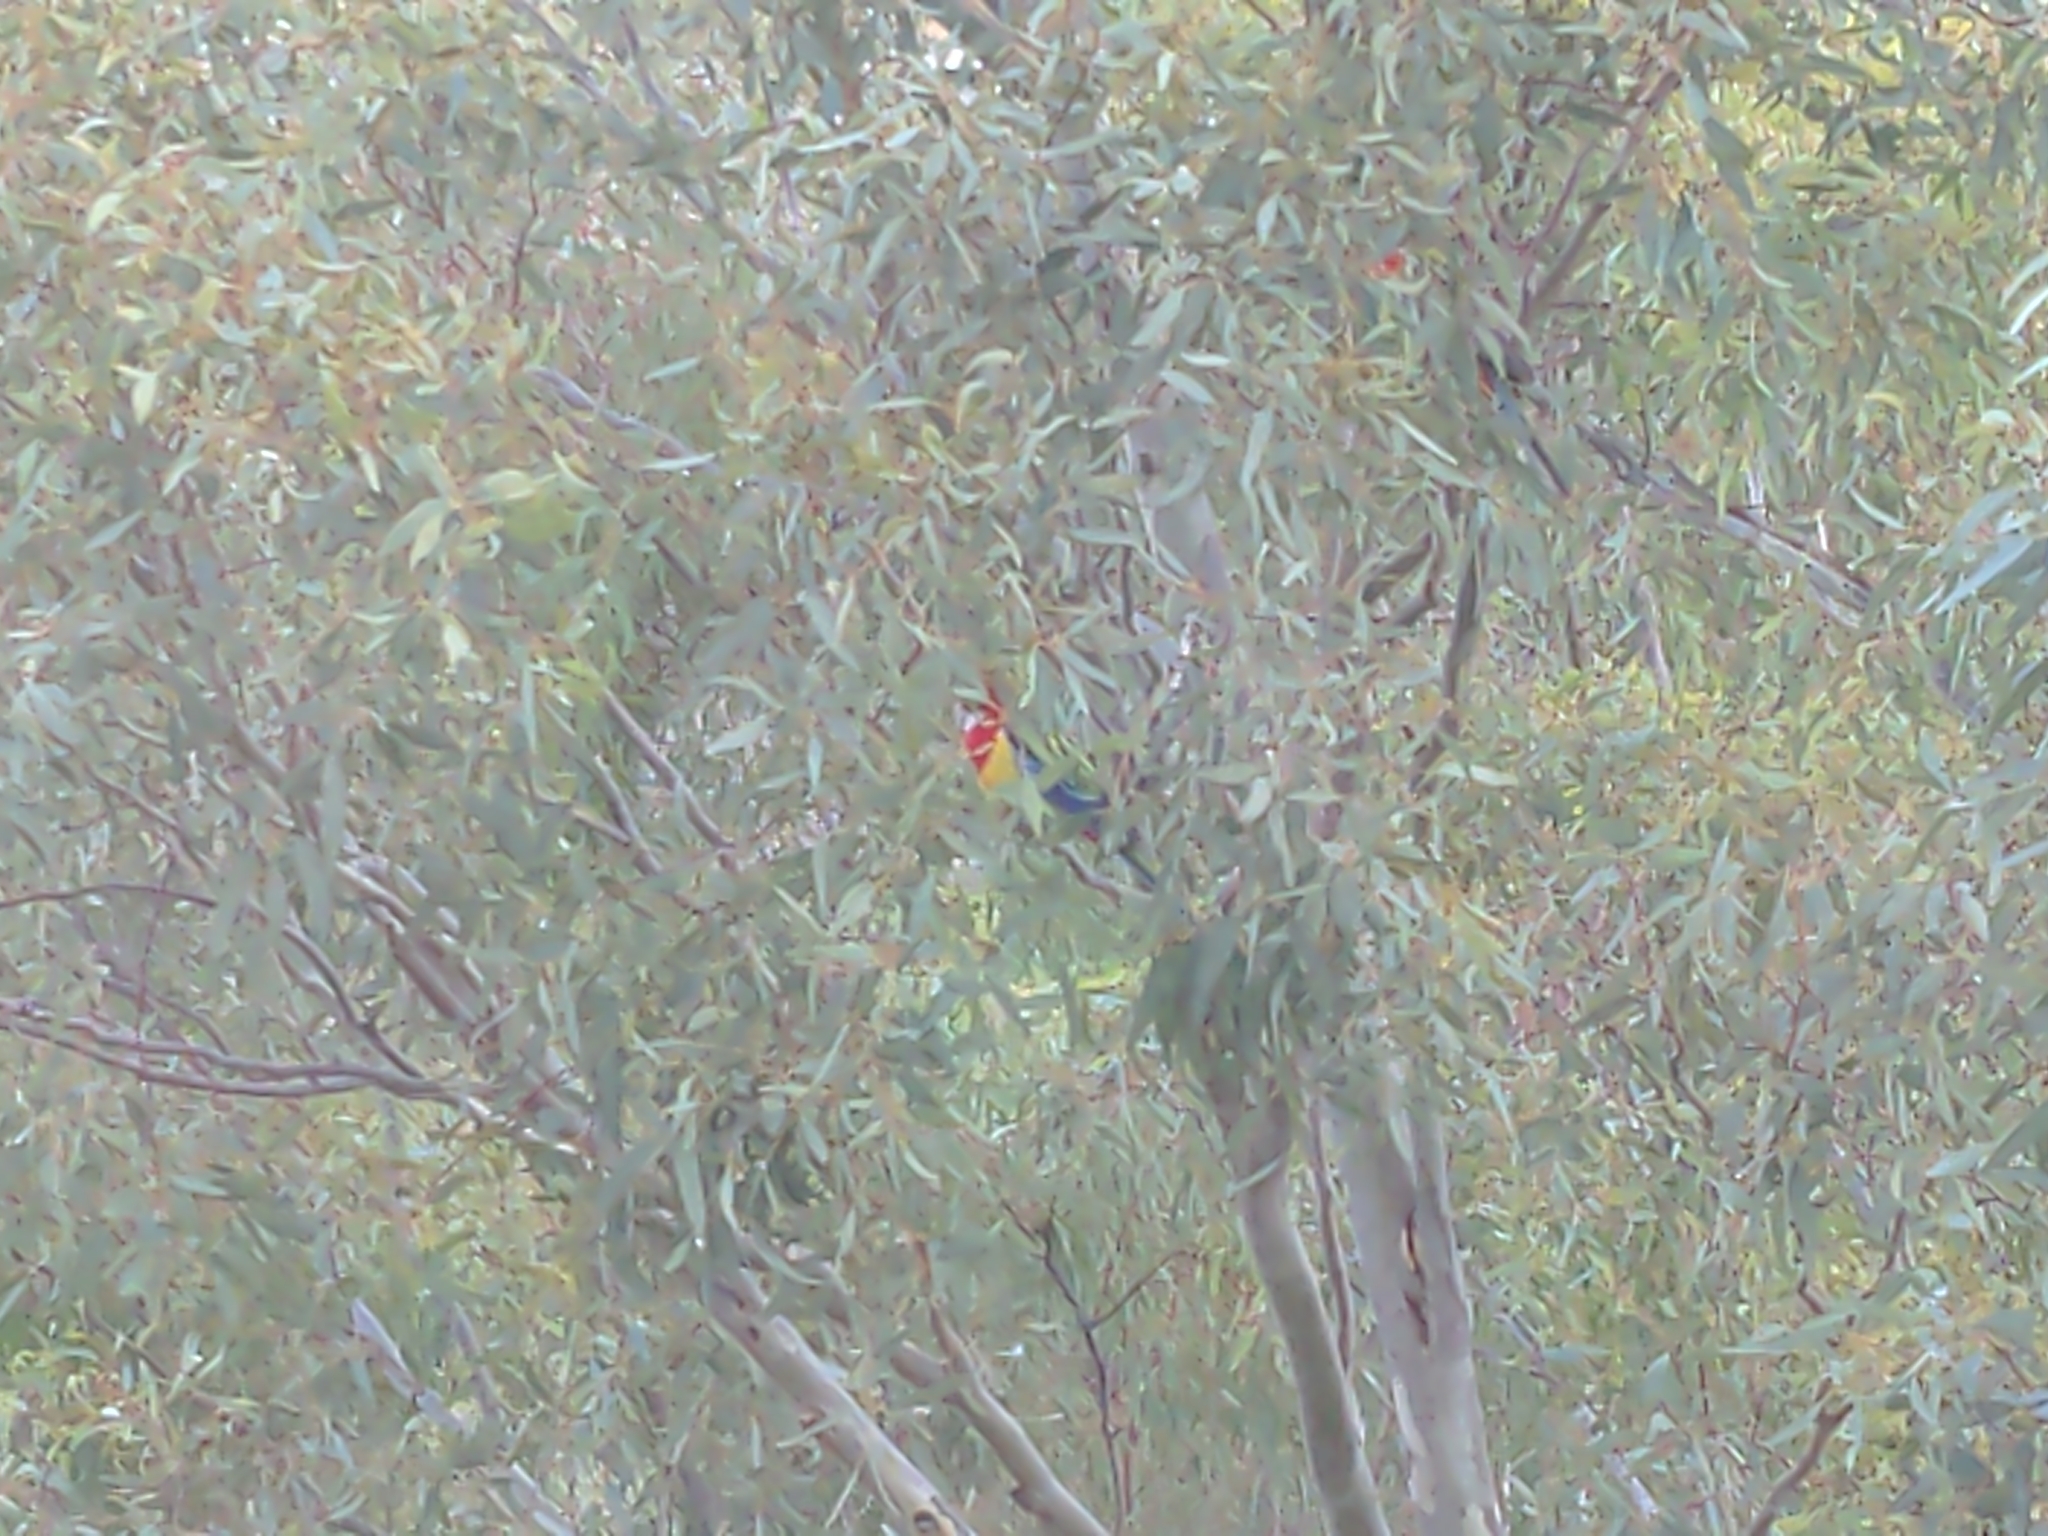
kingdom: Animalia
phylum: Chordata
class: Aves
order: Psittaciformes
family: Psittacidae
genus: Platycercus
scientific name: Platycercus eximius
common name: Eastern rosella
